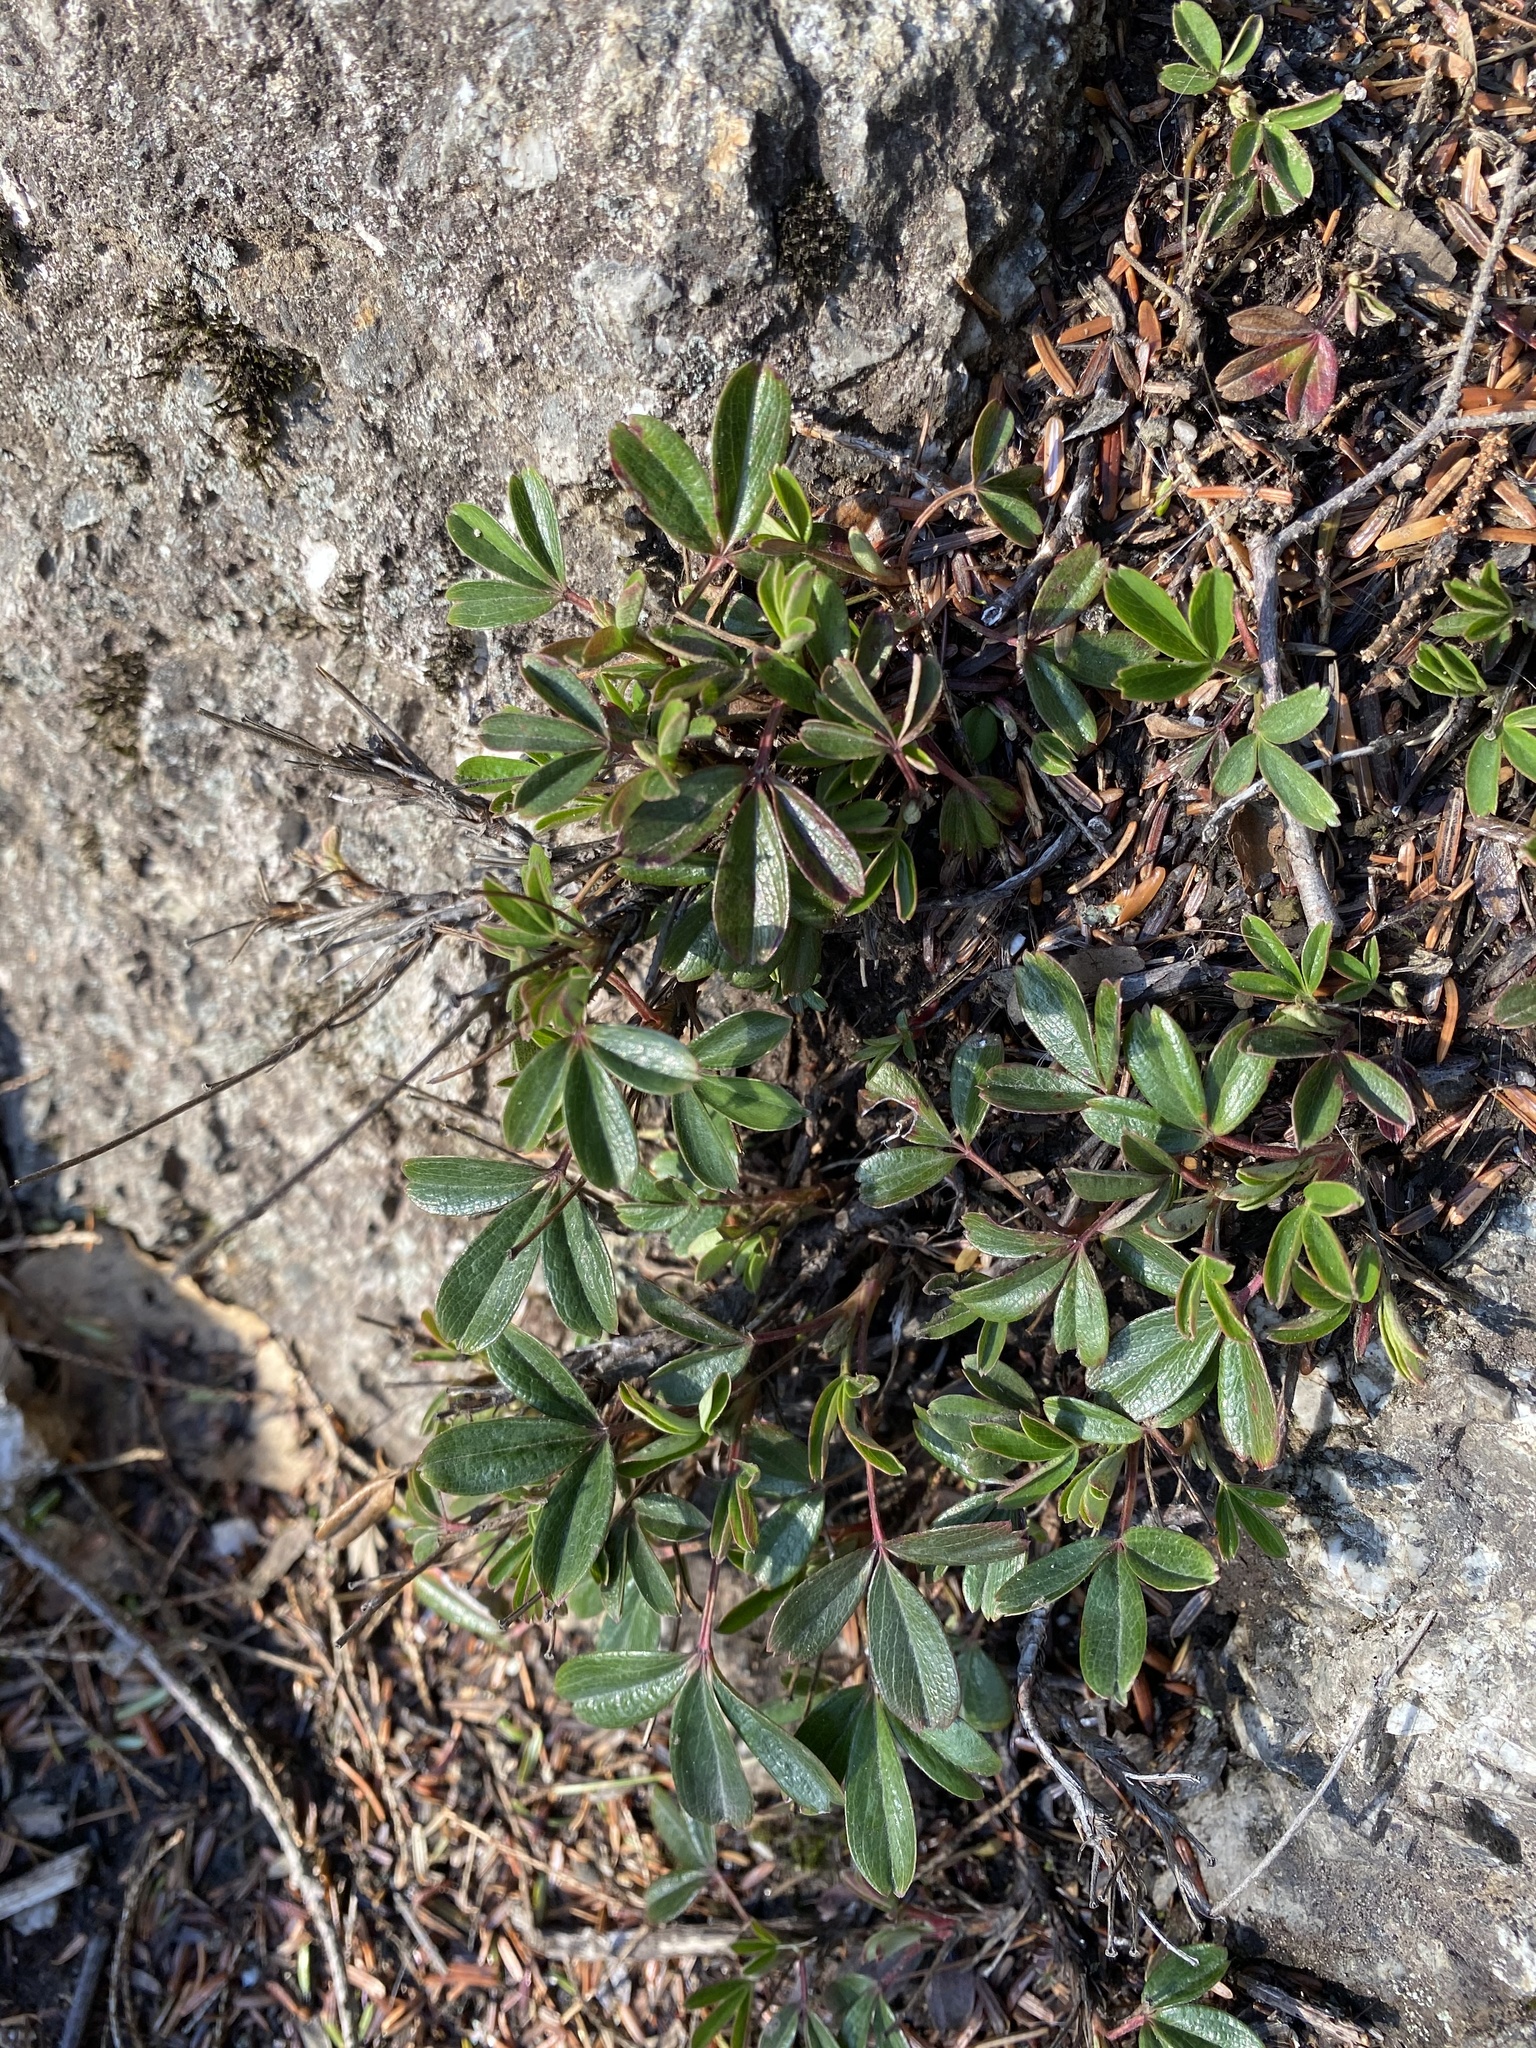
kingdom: Plantae
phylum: Tracheophyta
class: Magnoliopsida
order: Rosales
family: Rosaceae
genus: Sibbaldia
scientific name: Sibbaldia tridentata
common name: Three-toothed cinquefoil
